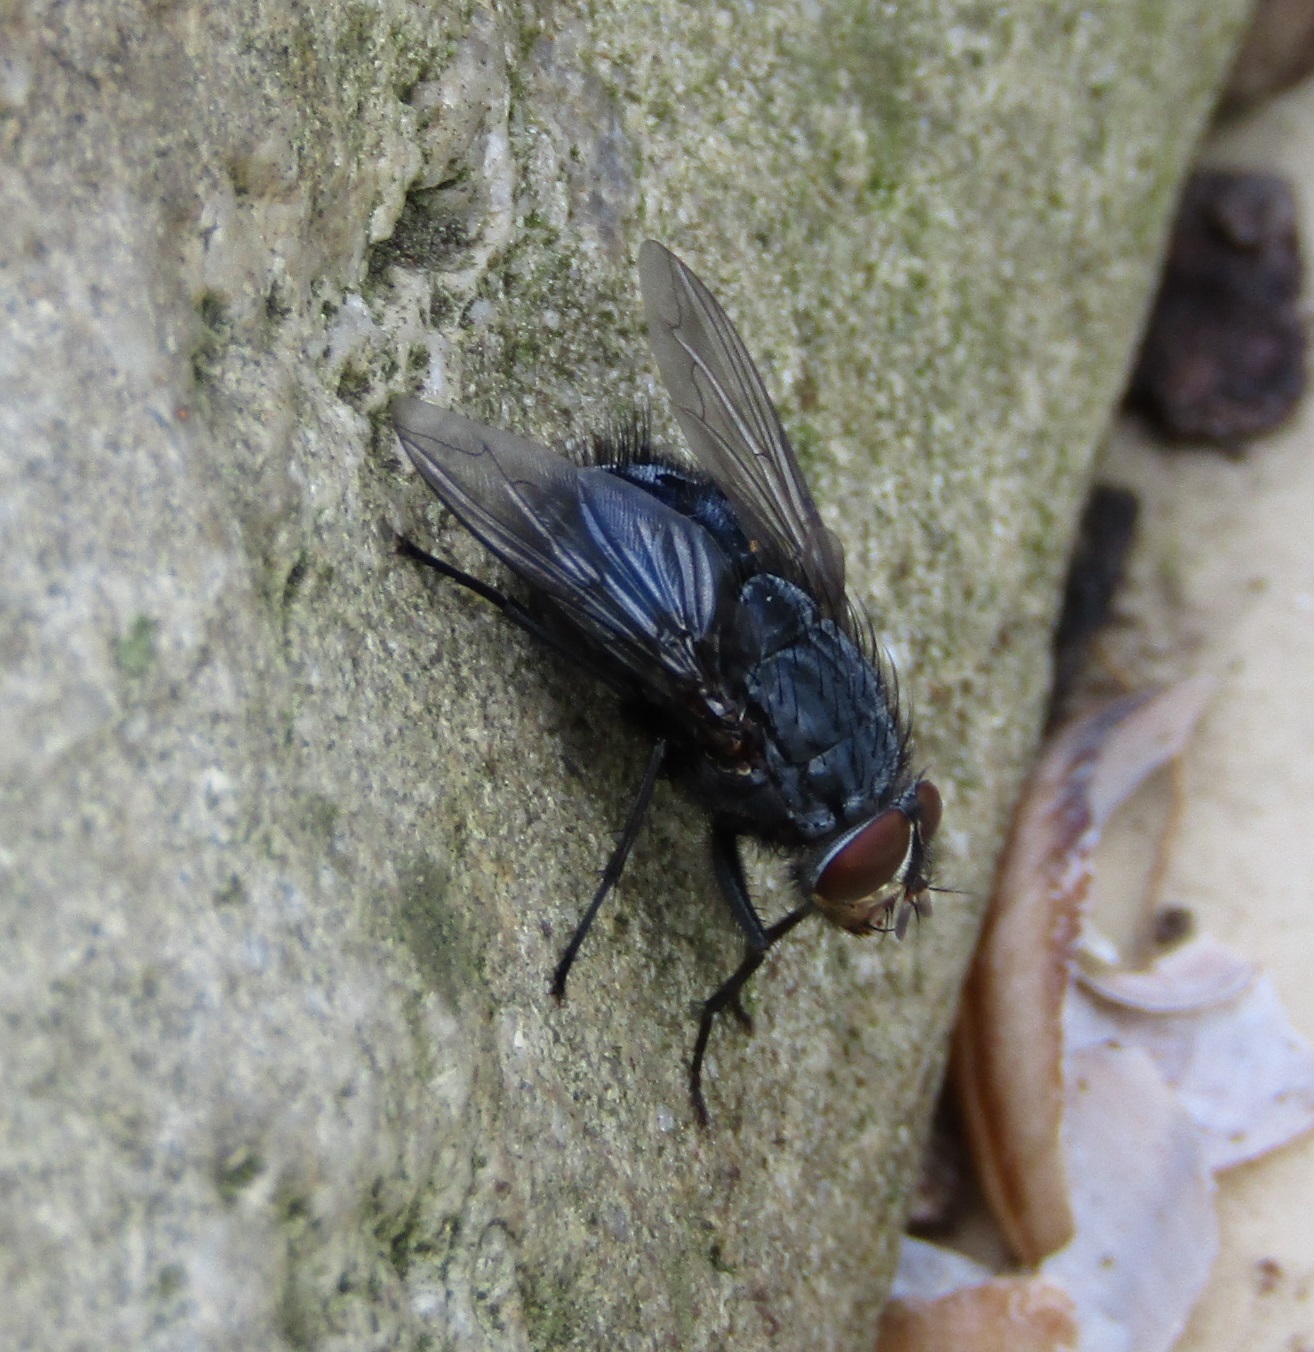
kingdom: Animalia
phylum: Arthropoda
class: Insecta
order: Diptera
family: Calliphoridae
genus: Calliphora
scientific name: Calliphora vicina
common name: Common blow flie
